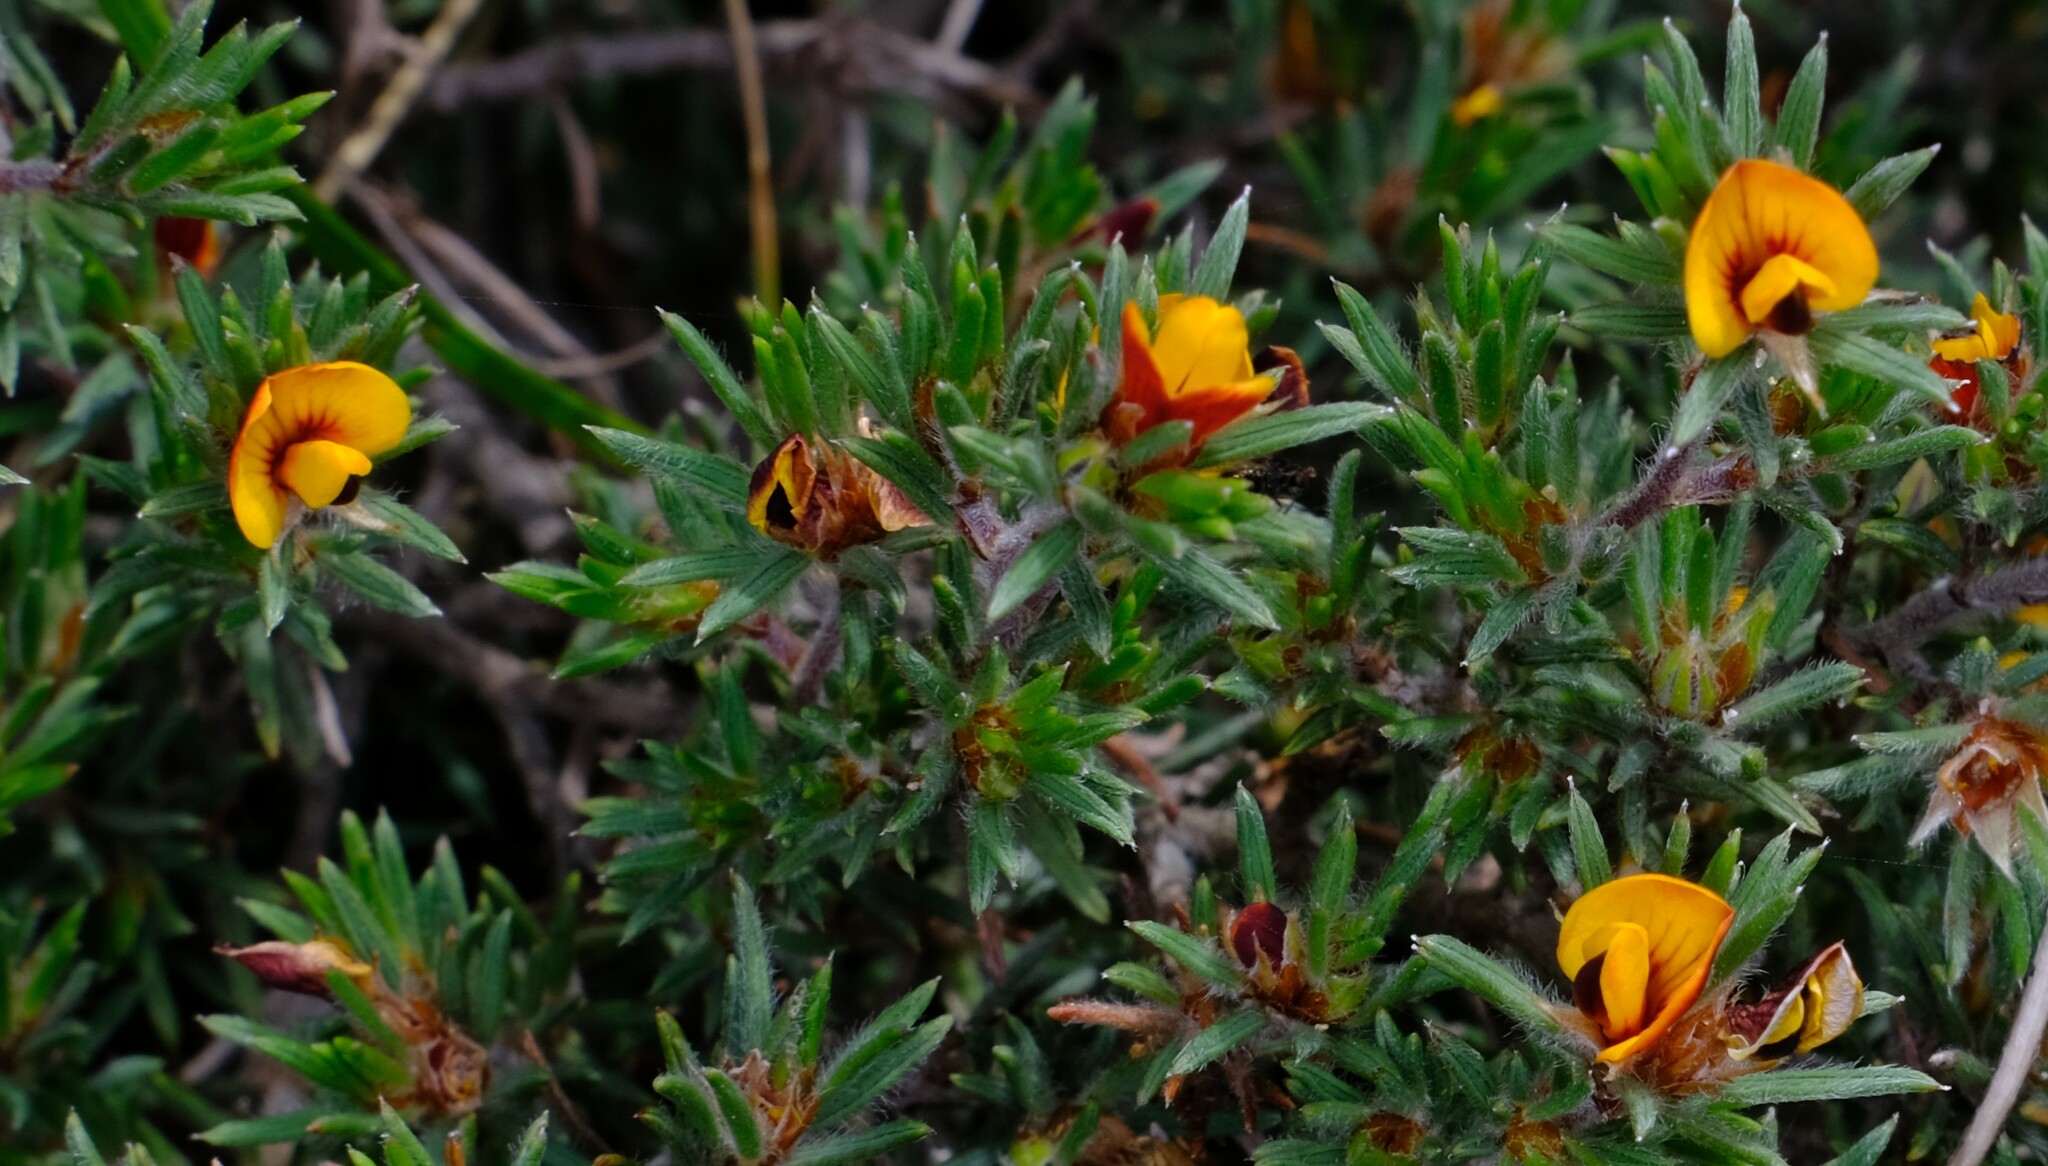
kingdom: Plantae
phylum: Tracheophyta
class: Magnoliopsida
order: Fabales
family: Fabaceae
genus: Pultenaea
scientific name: Pultenaea tenuifolia
